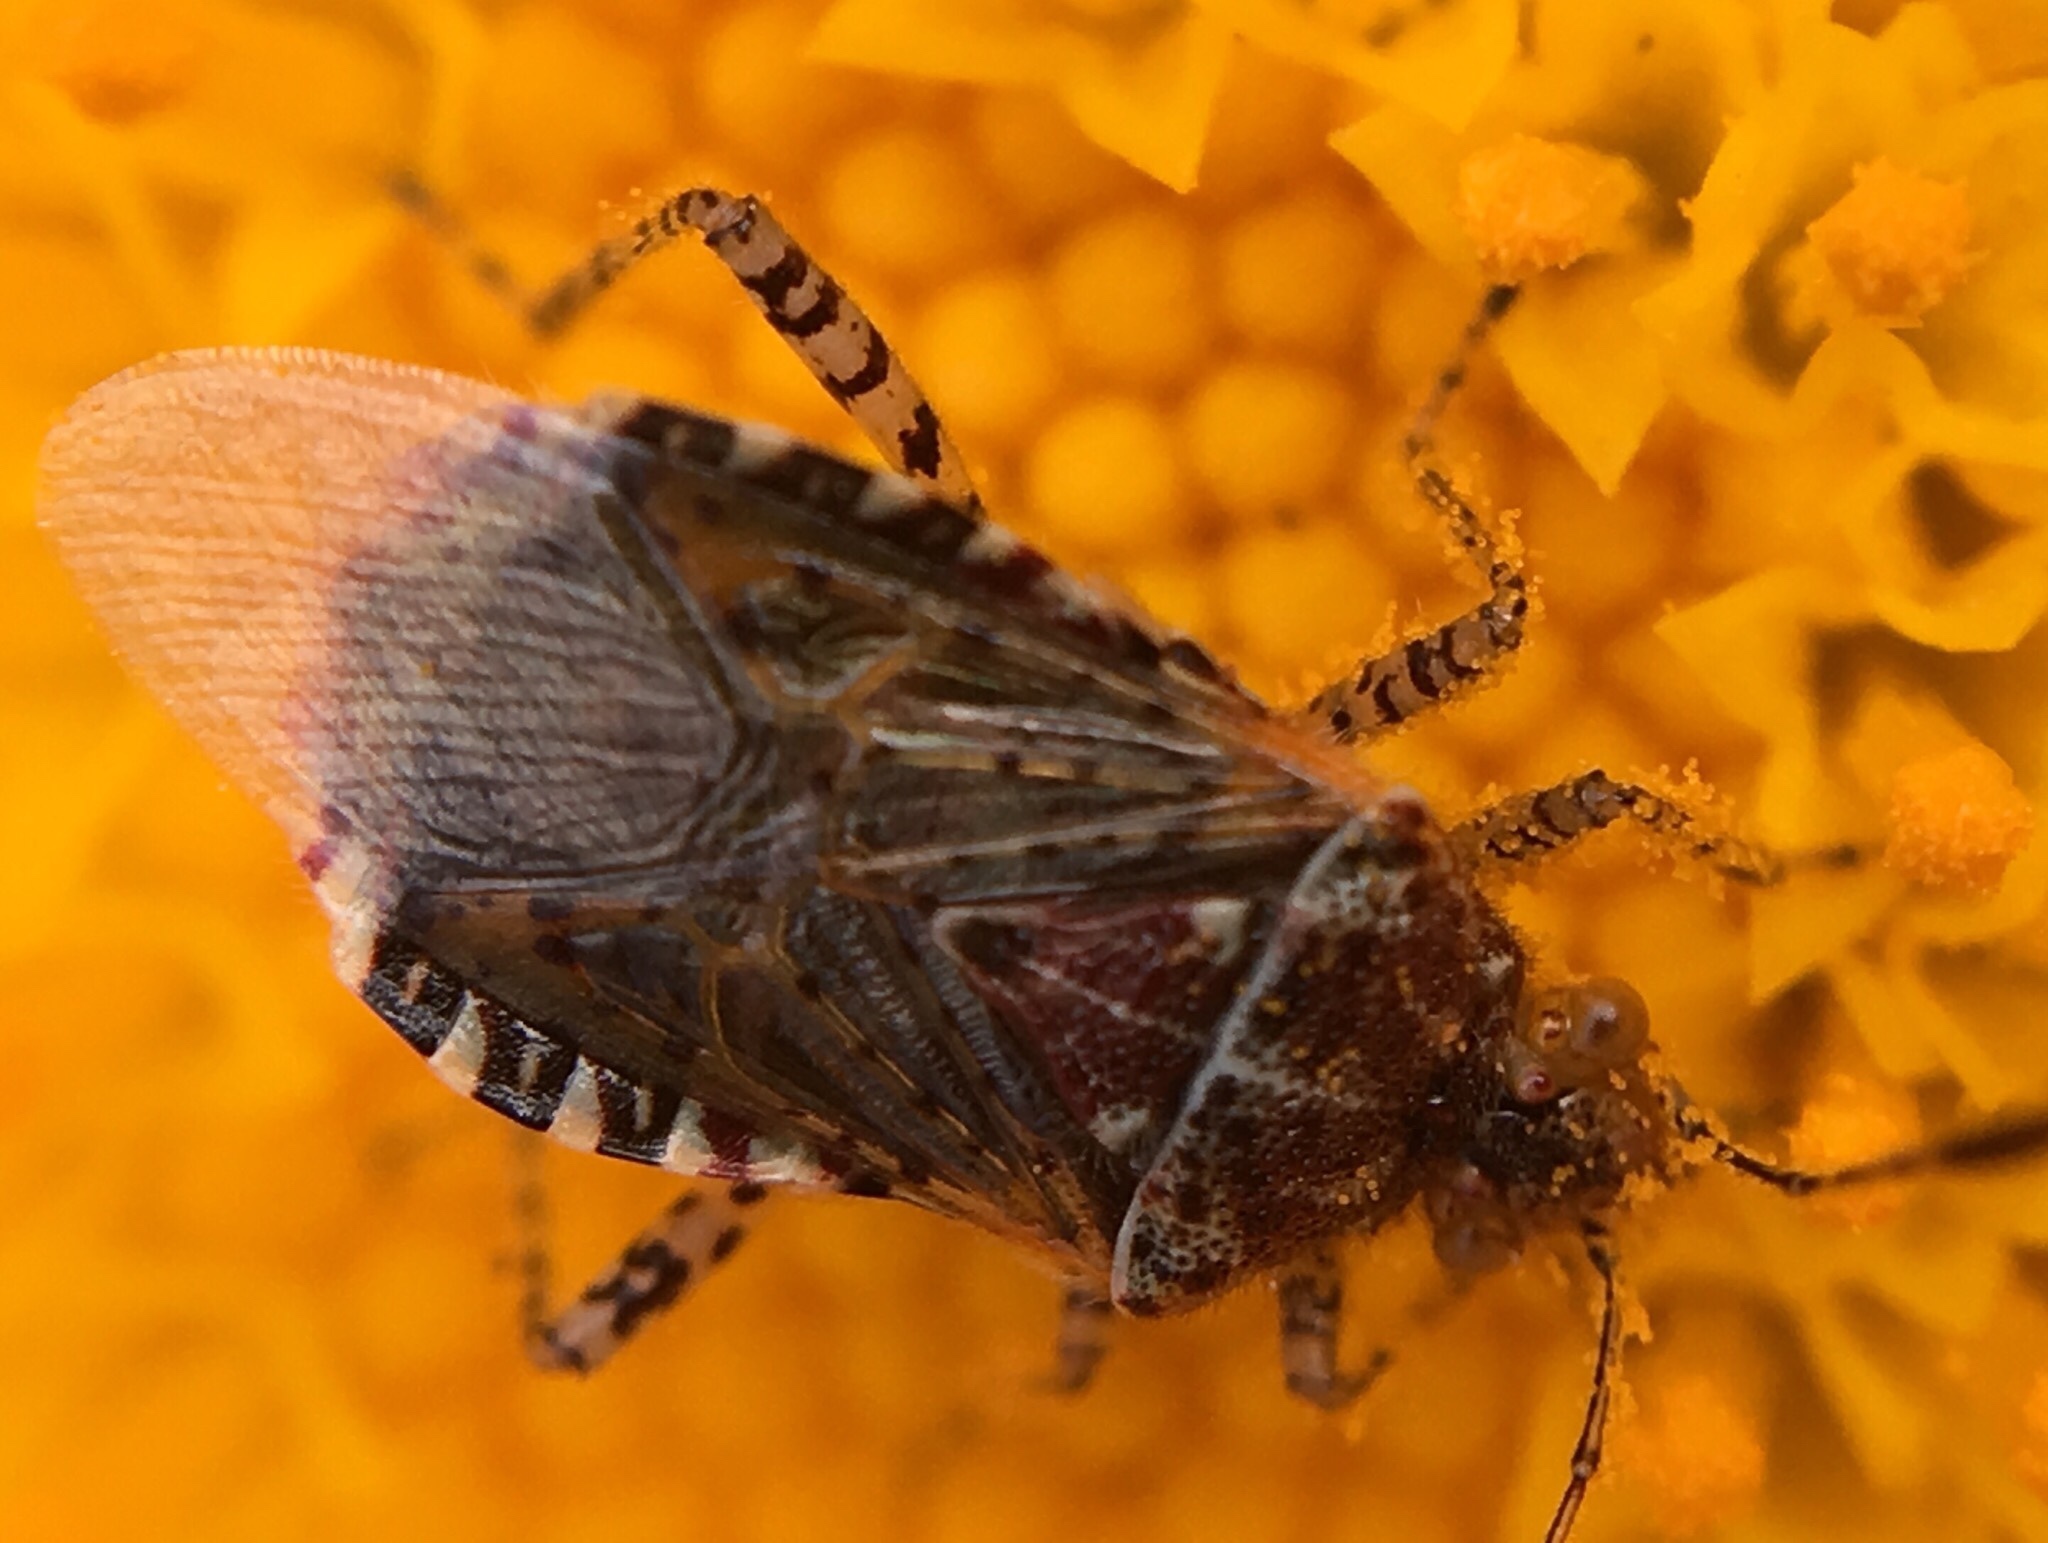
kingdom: Animalia
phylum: Arthropoda
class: Insecta
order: Hemiptera
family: Rhopalidae
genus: Niesthrea
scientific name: Niesthrea louisianica
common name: Scentless plant bug
